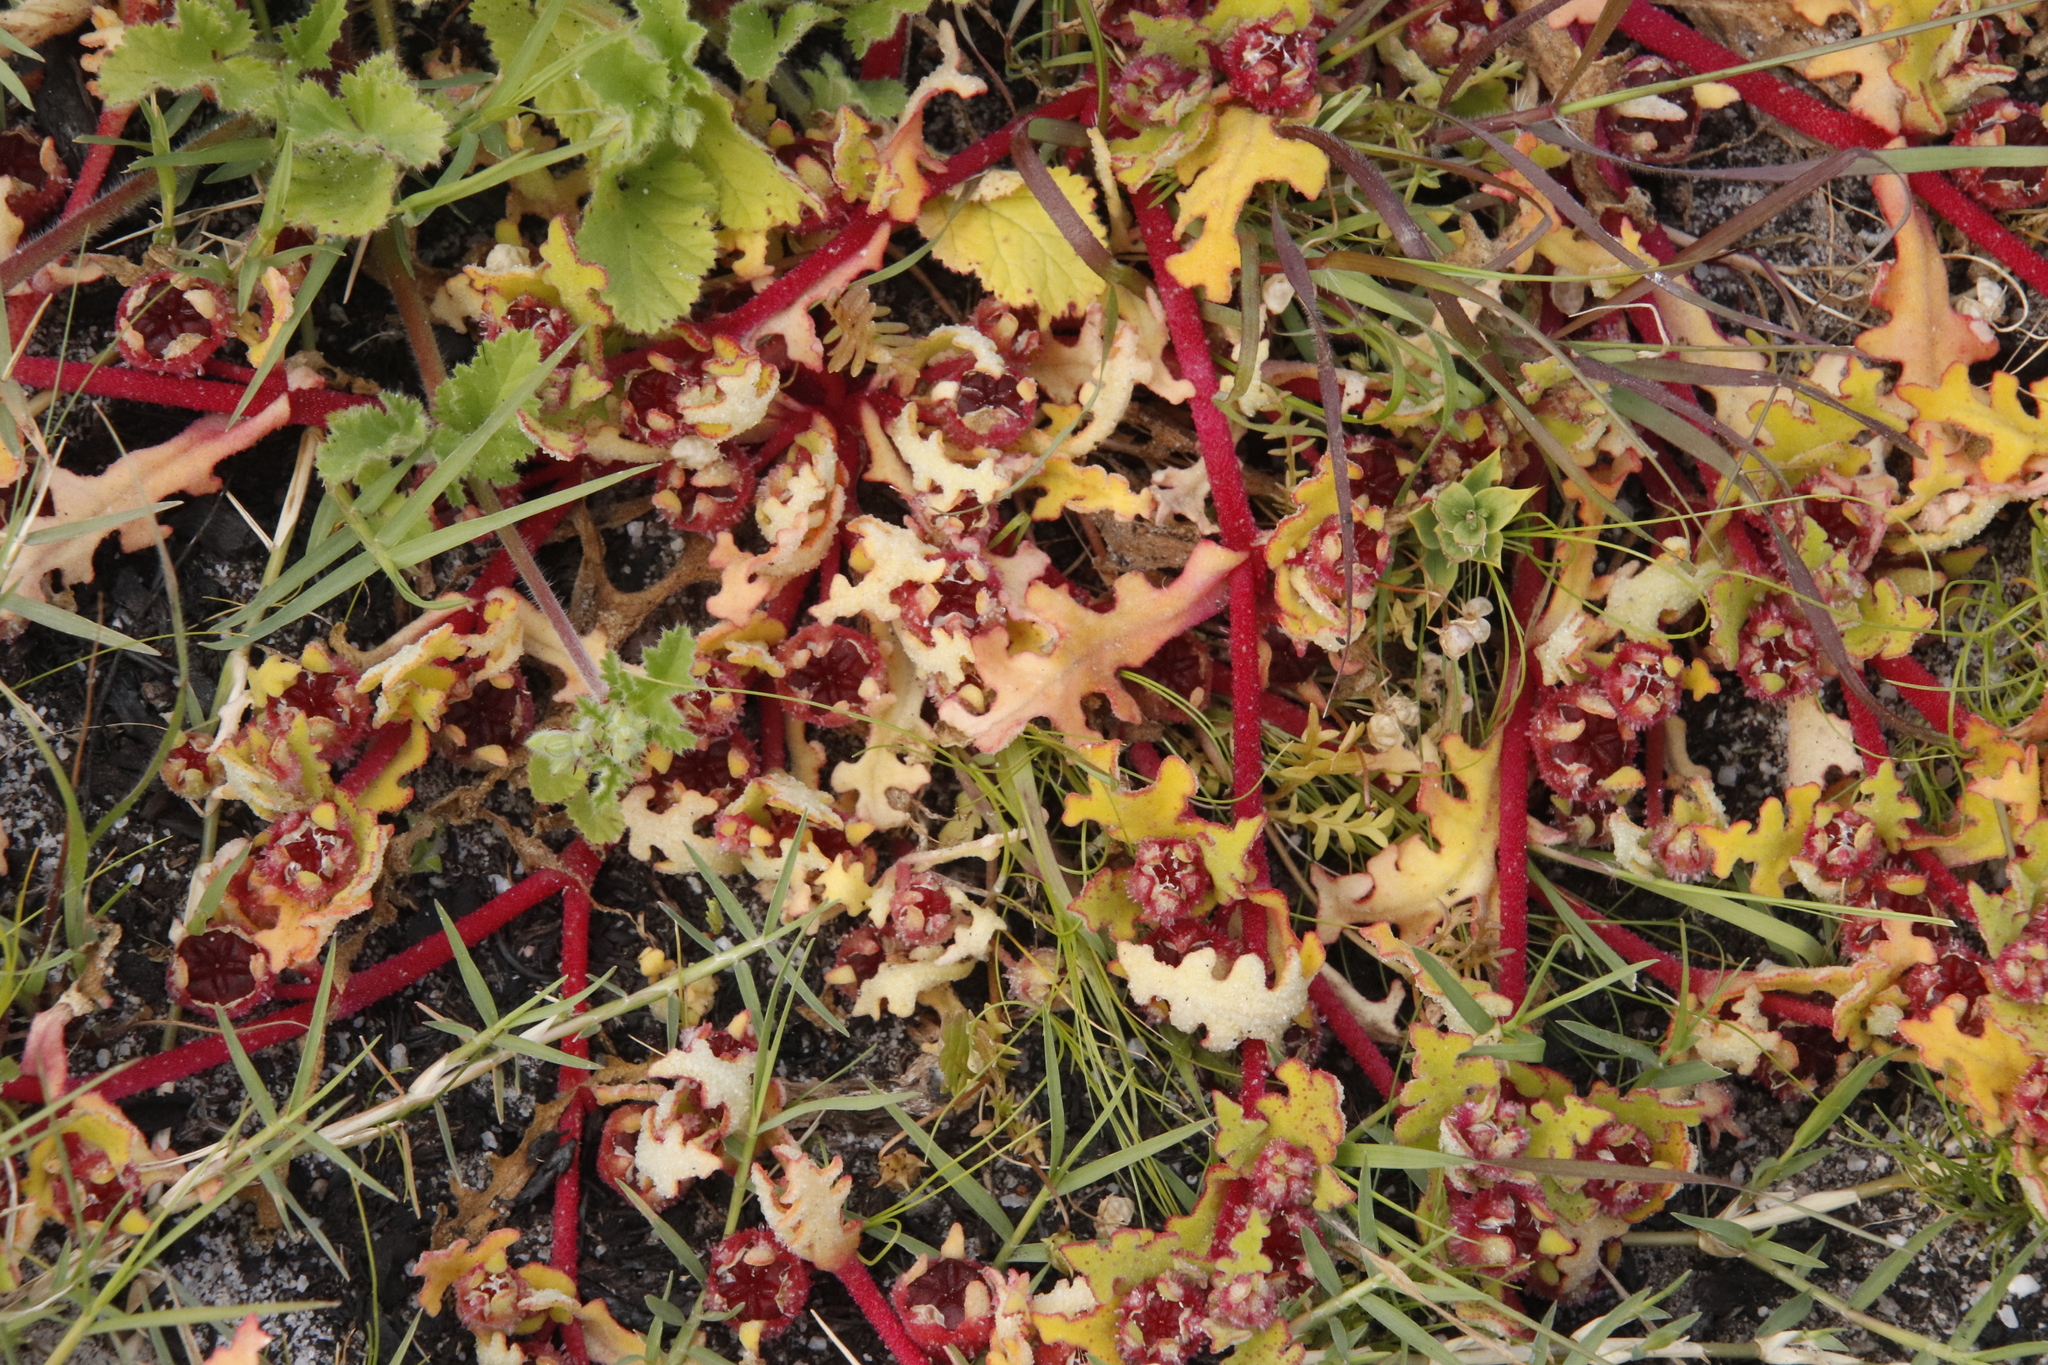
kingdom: Plantae
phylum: Tracheophyta
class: Magnoliopsida
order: Caryophyllales
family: Aizoaceae
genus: Cleretum
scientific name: Cleretum herrei
